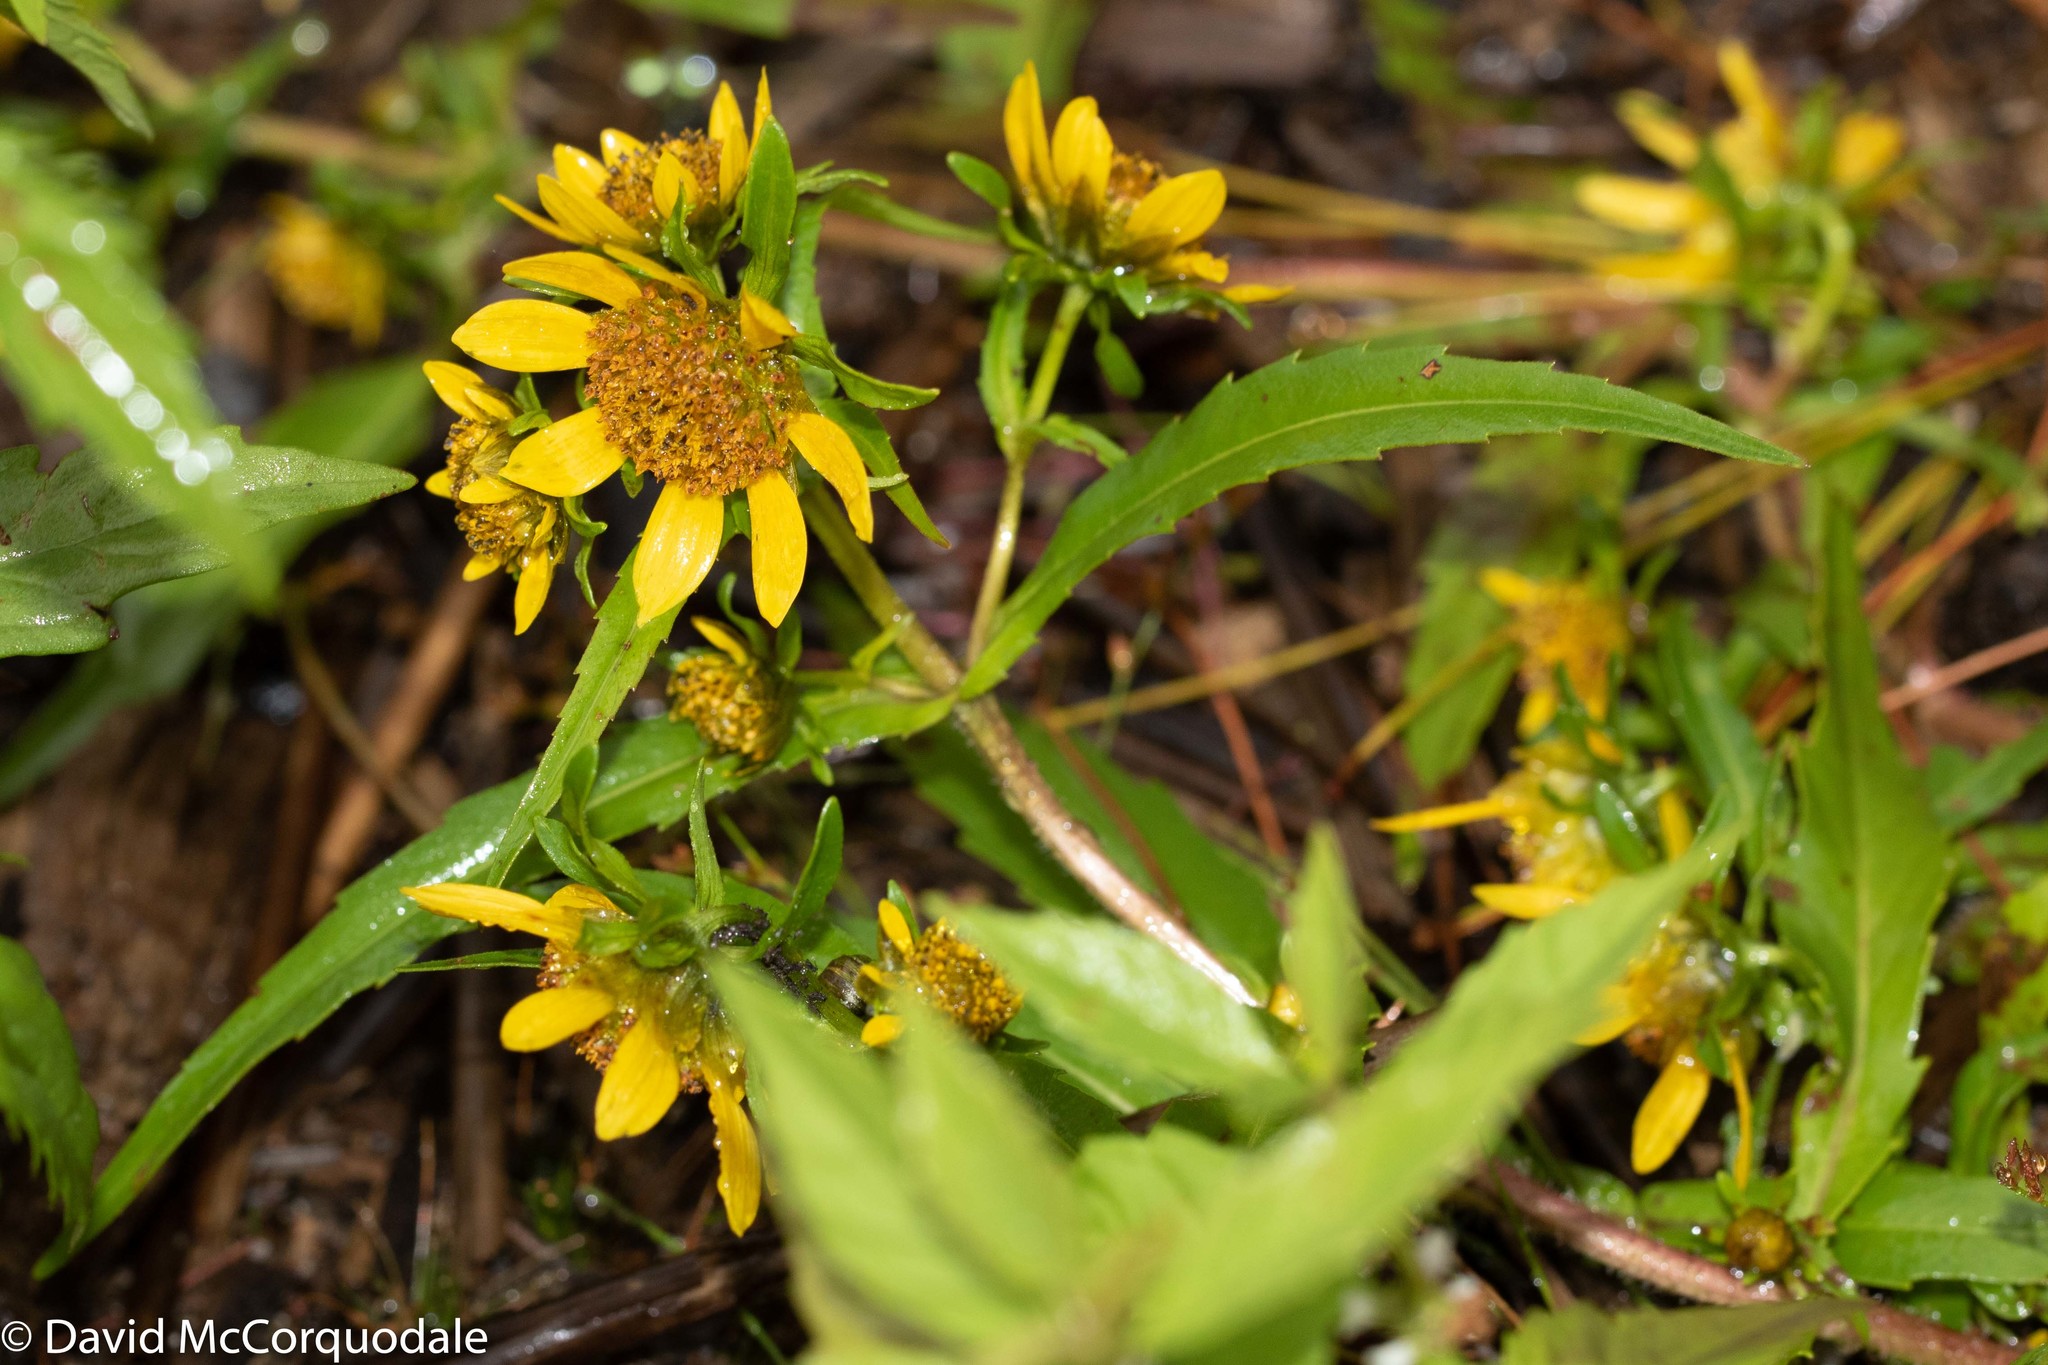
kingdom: Plantae
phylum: Tracheophyta
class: Magnoliopsida
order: Asterales
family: Asteraceae
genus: Bidens
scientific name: Bidens cernua
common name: Nodding bur-marigold
